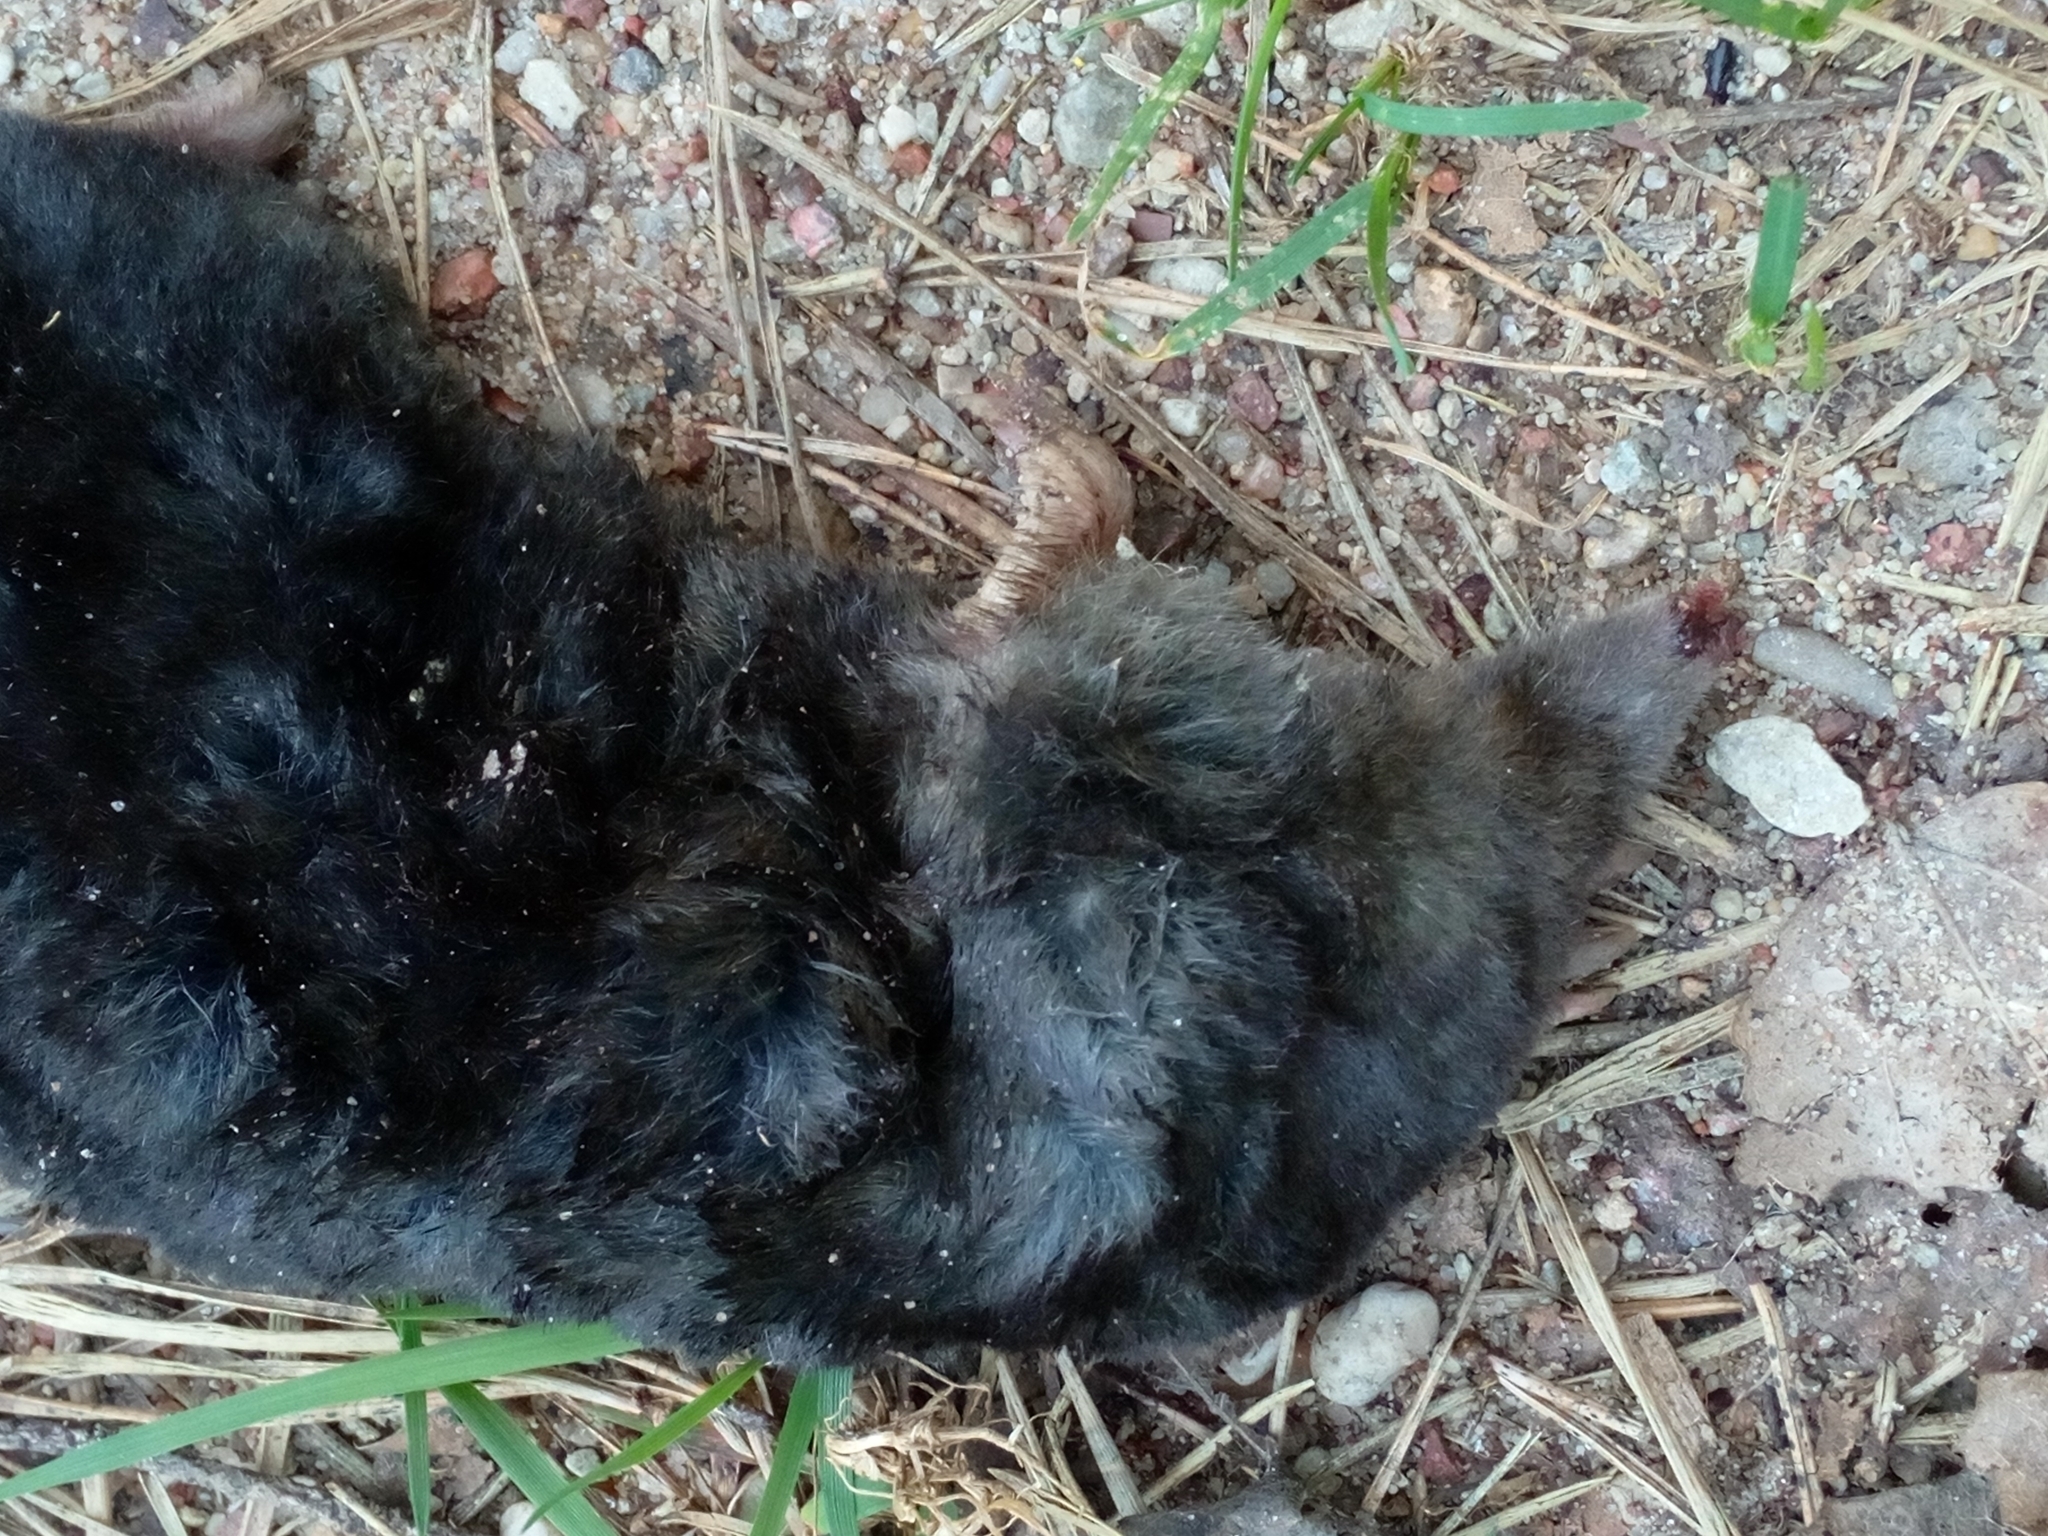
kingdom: Animalia
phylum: Chordata
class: Mammalia
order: Soricomorpha
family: Talpidae
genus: Talpa
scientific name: Talpa europaea
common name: European mole
